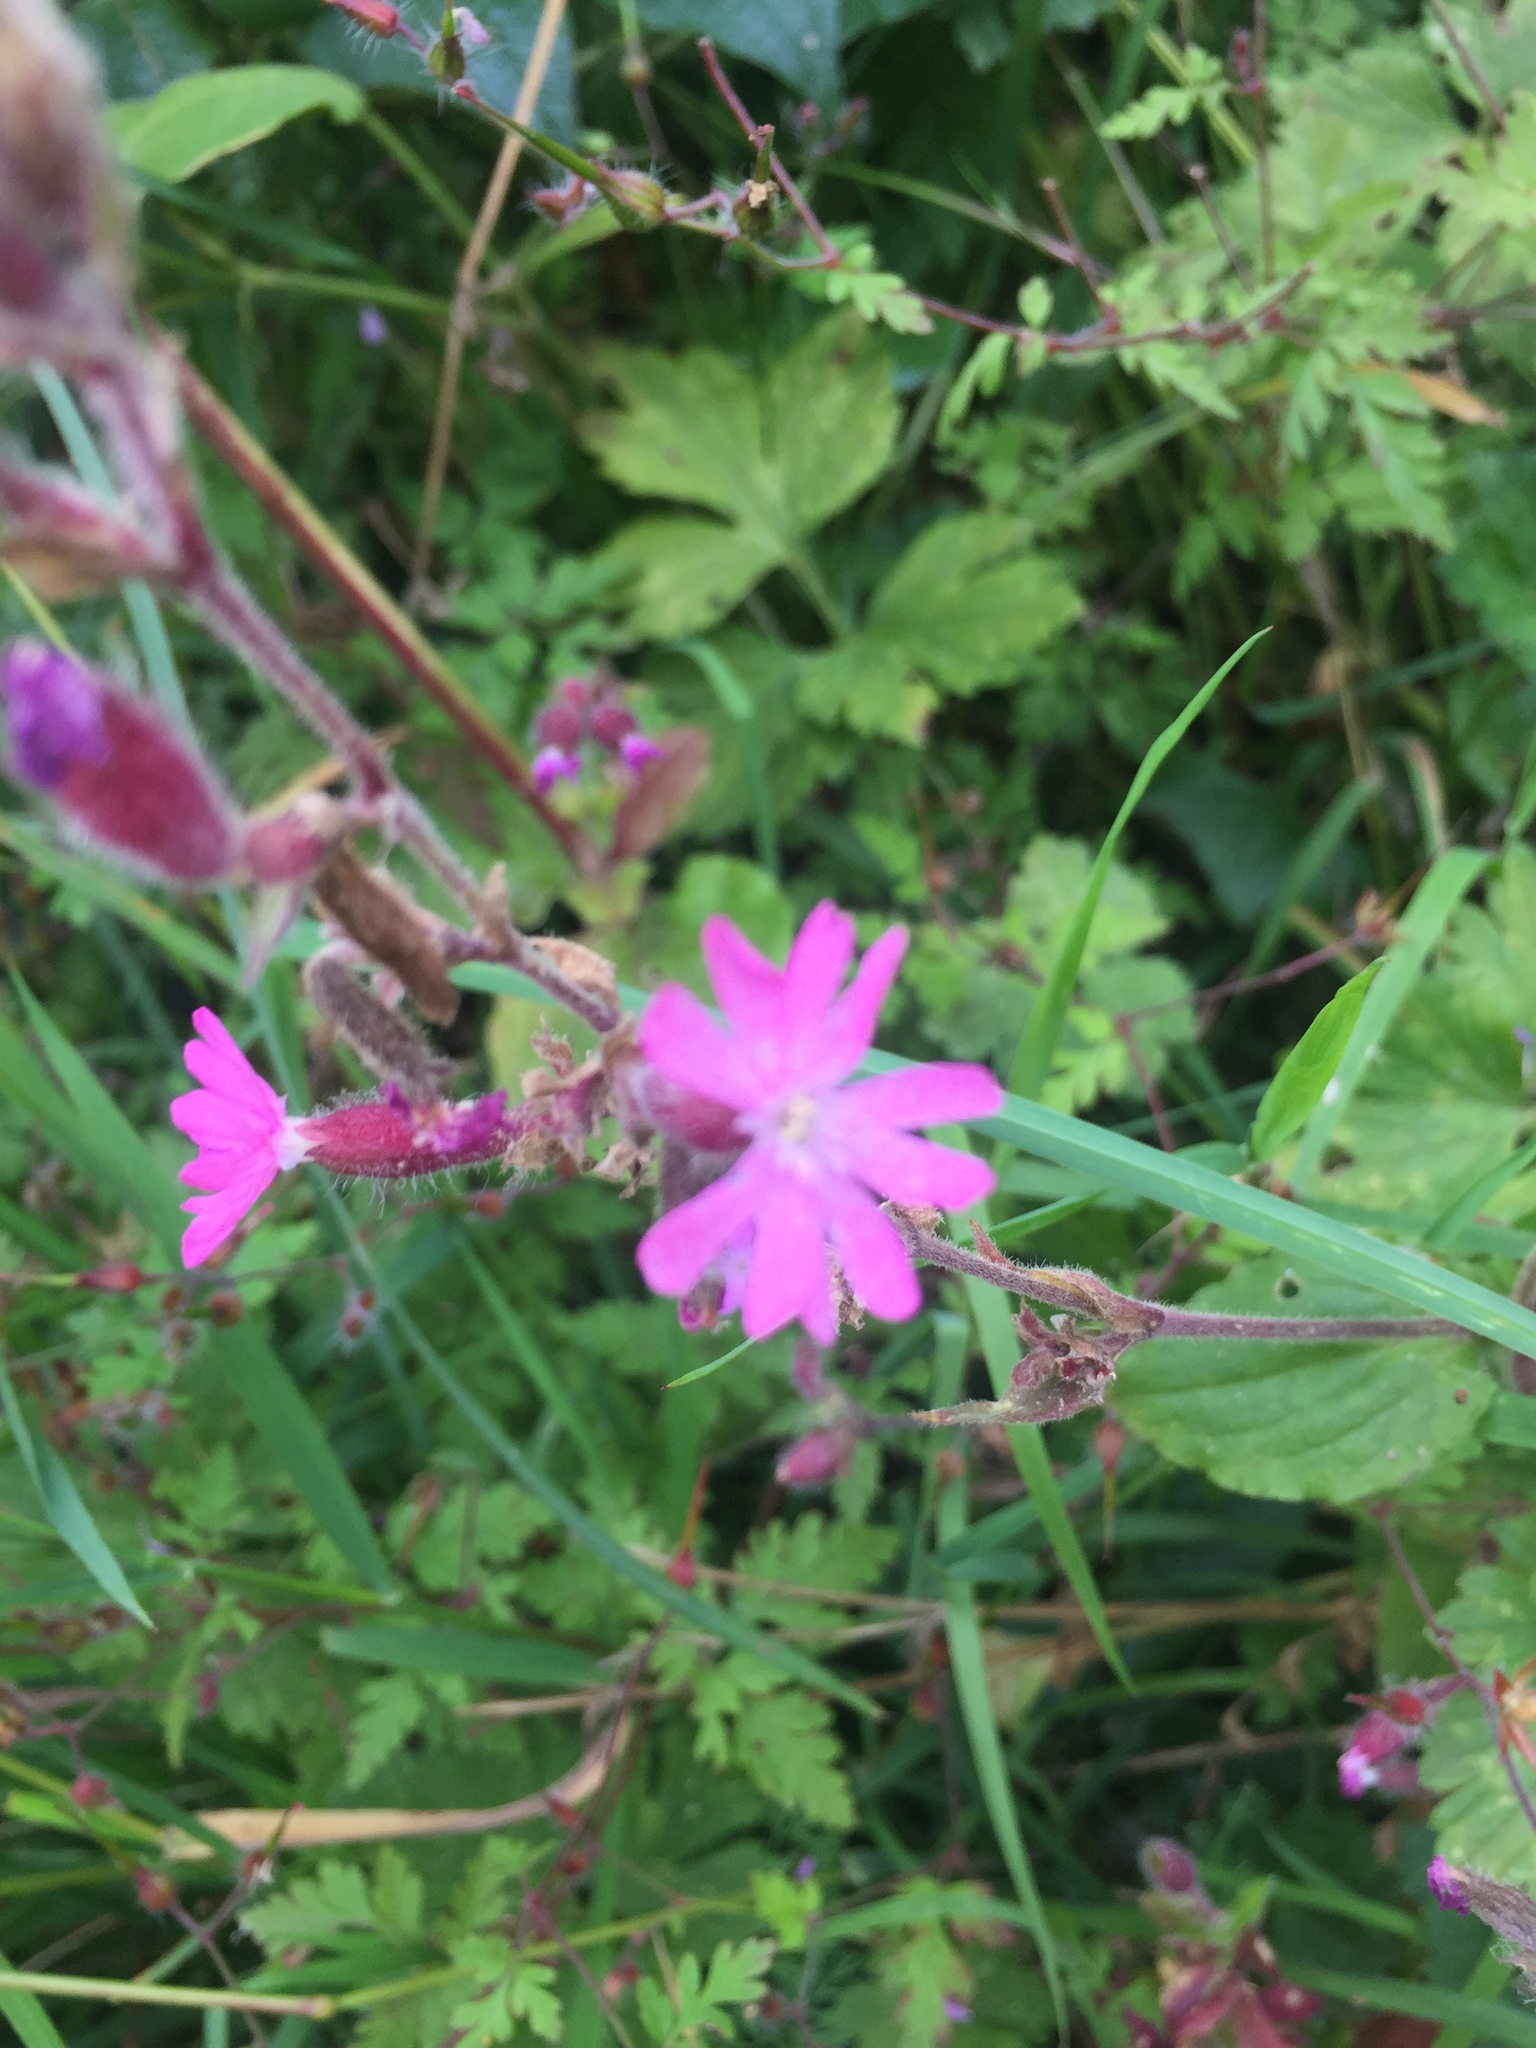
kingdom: Plantae
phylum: Tracheophyta
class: Magnoliopsida
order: Caryophyllales
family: Caryophyllaceae
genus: Silene
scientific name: Silene dioica
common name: Red campion
